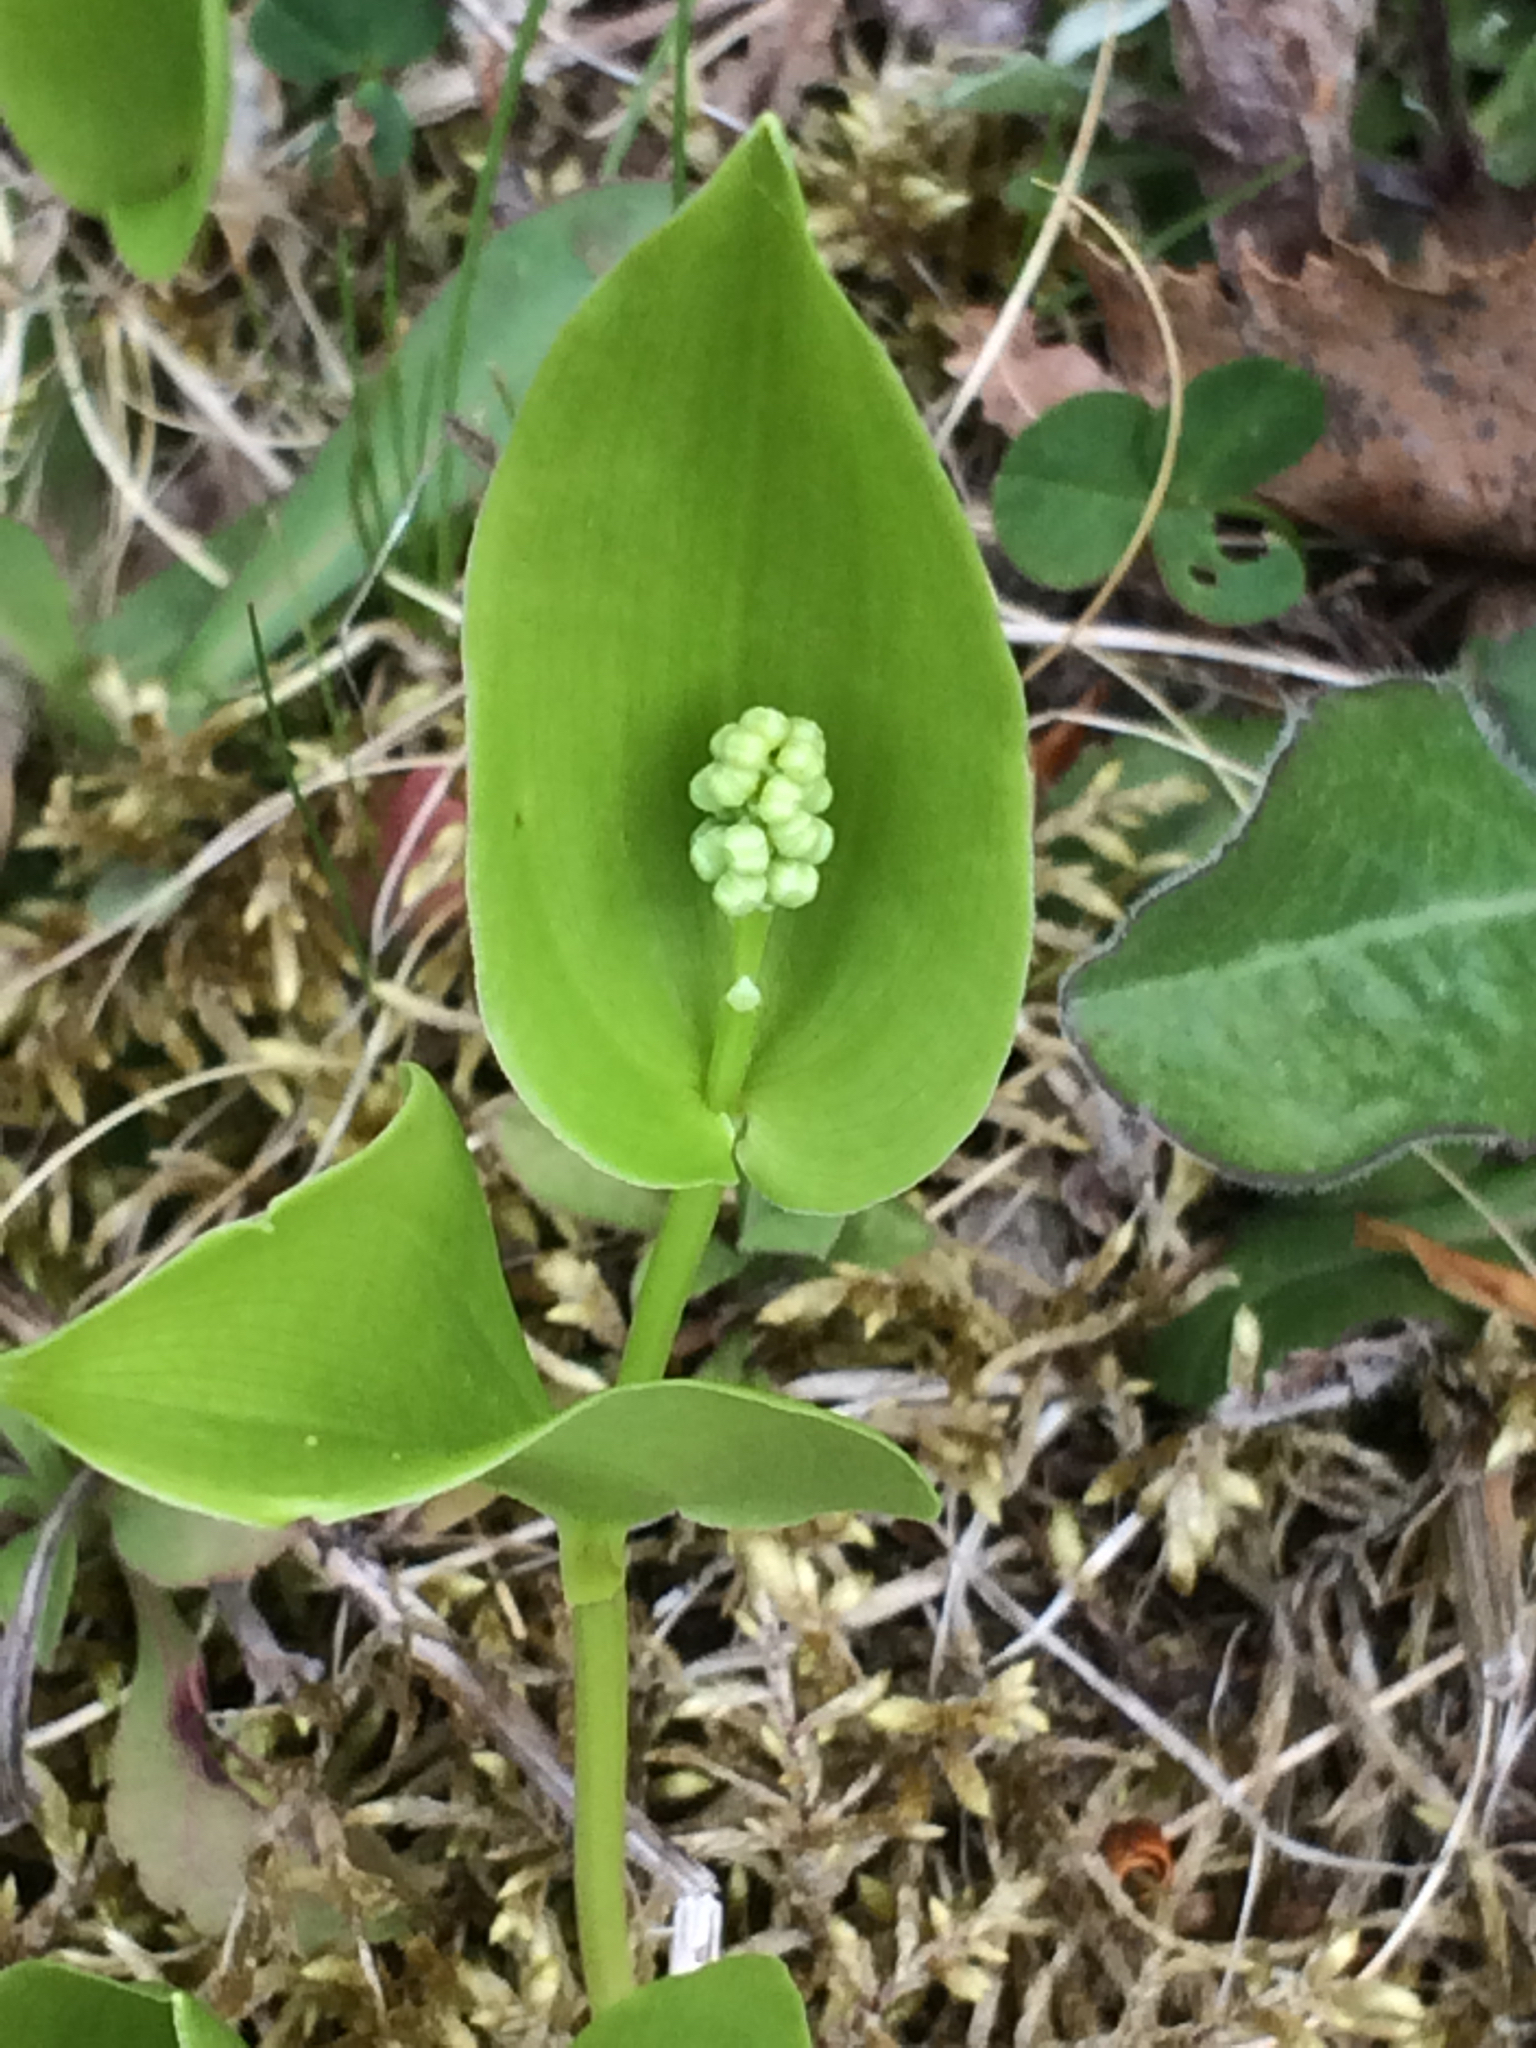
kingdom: Plantae
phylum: Tracheophyta
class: Liliopsida
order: Asparagales
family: Asparagaceae
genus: Maianthemum
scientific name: Maianthemum canadense
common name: False lily-of-the-valley
